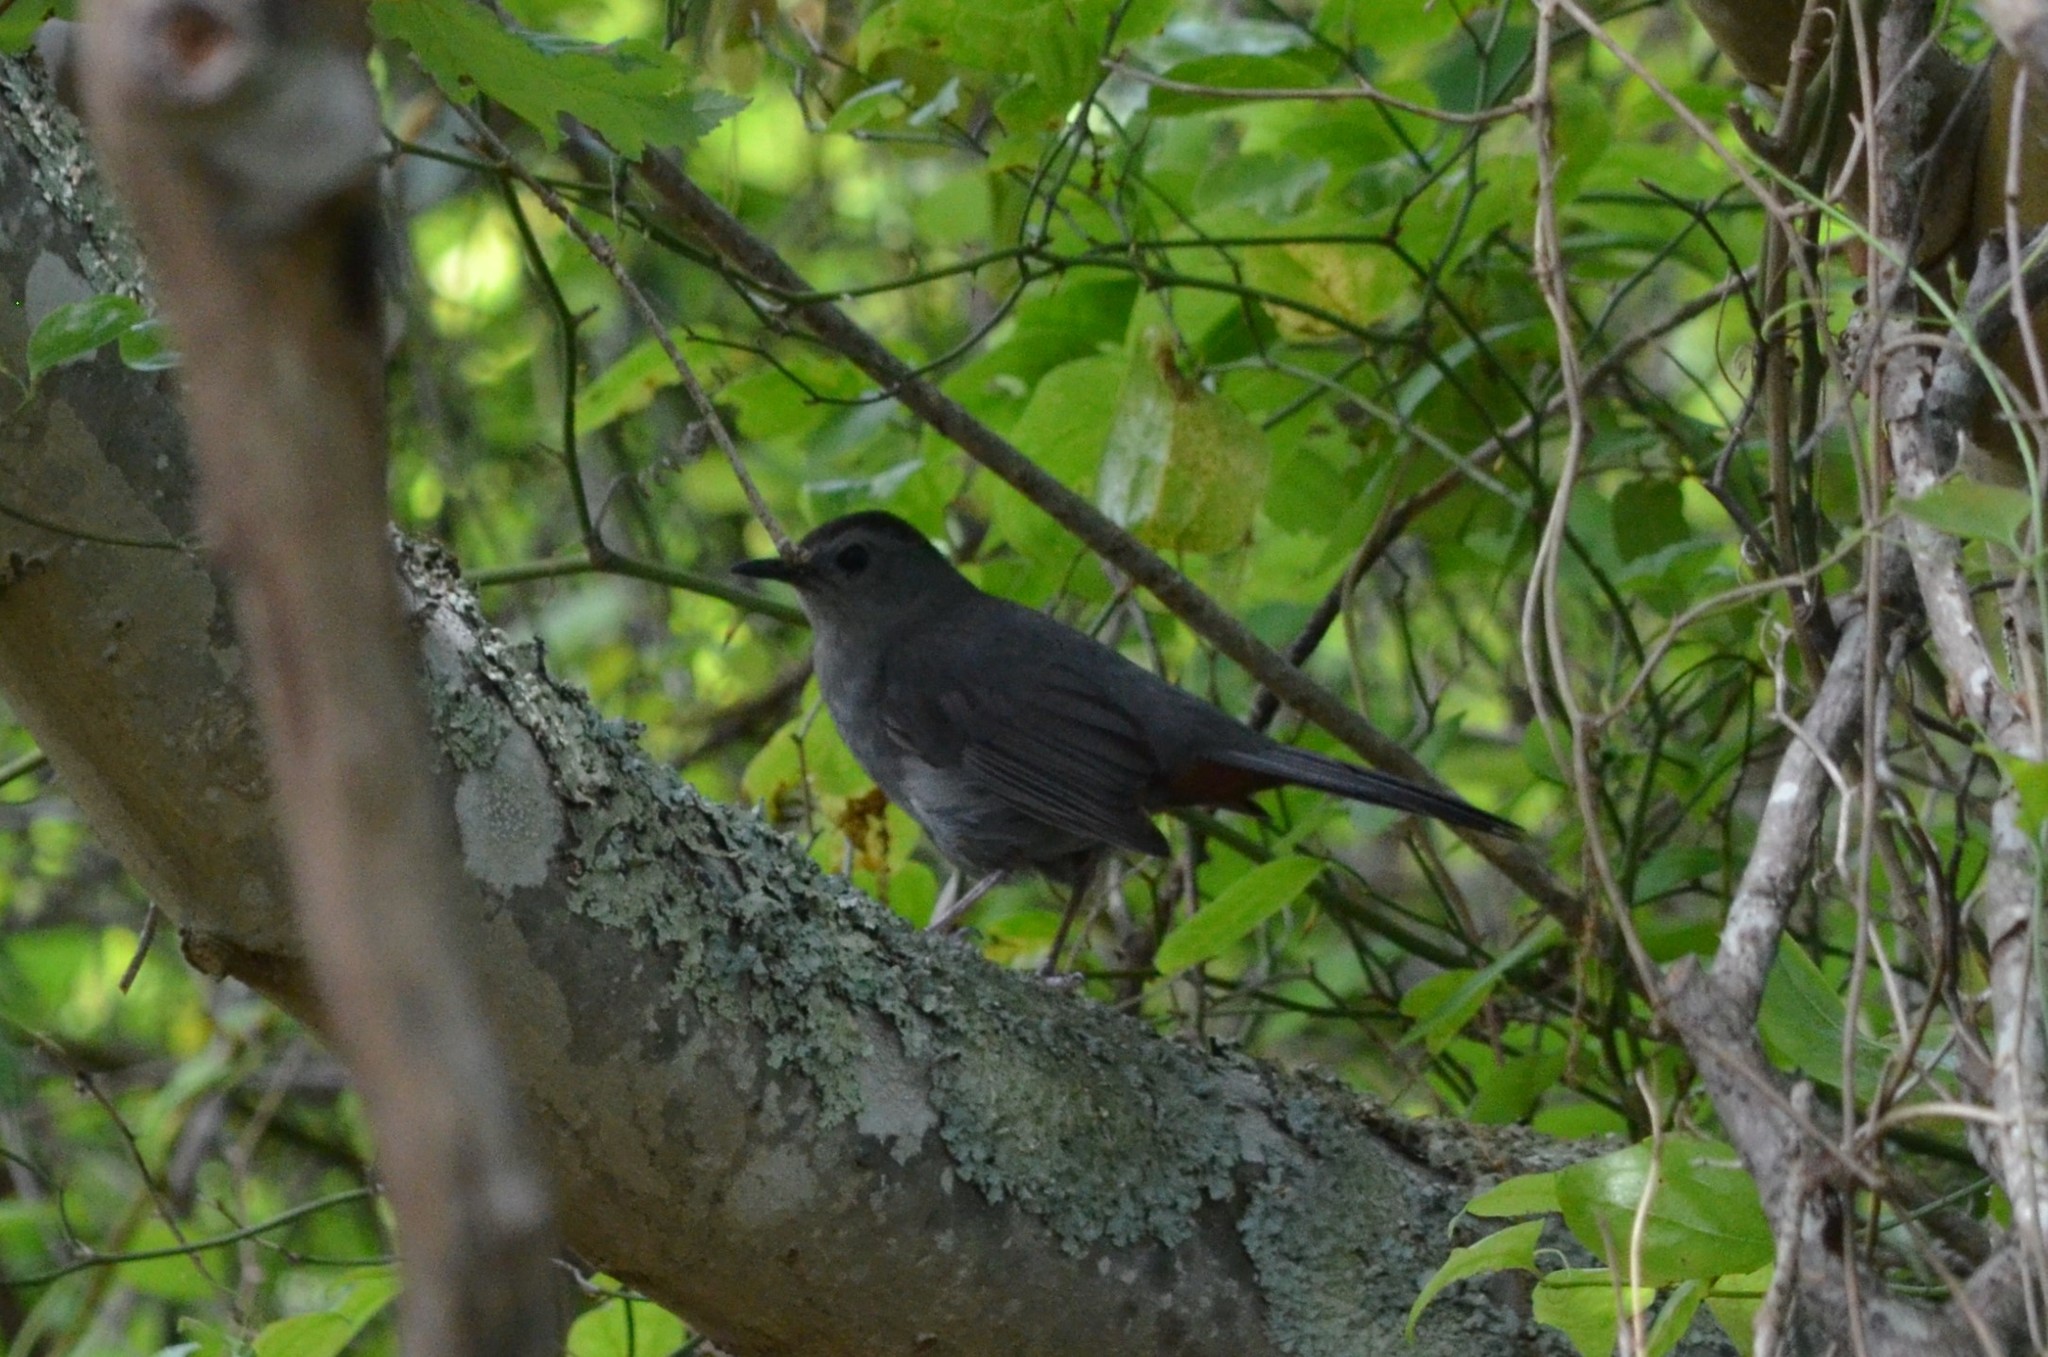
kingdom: Animalia
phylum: Chordata
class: Aves
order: Passeriformes
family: Mimidae
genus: Dumetella
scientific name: Dumetella carolinensis
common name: Gray catbird
